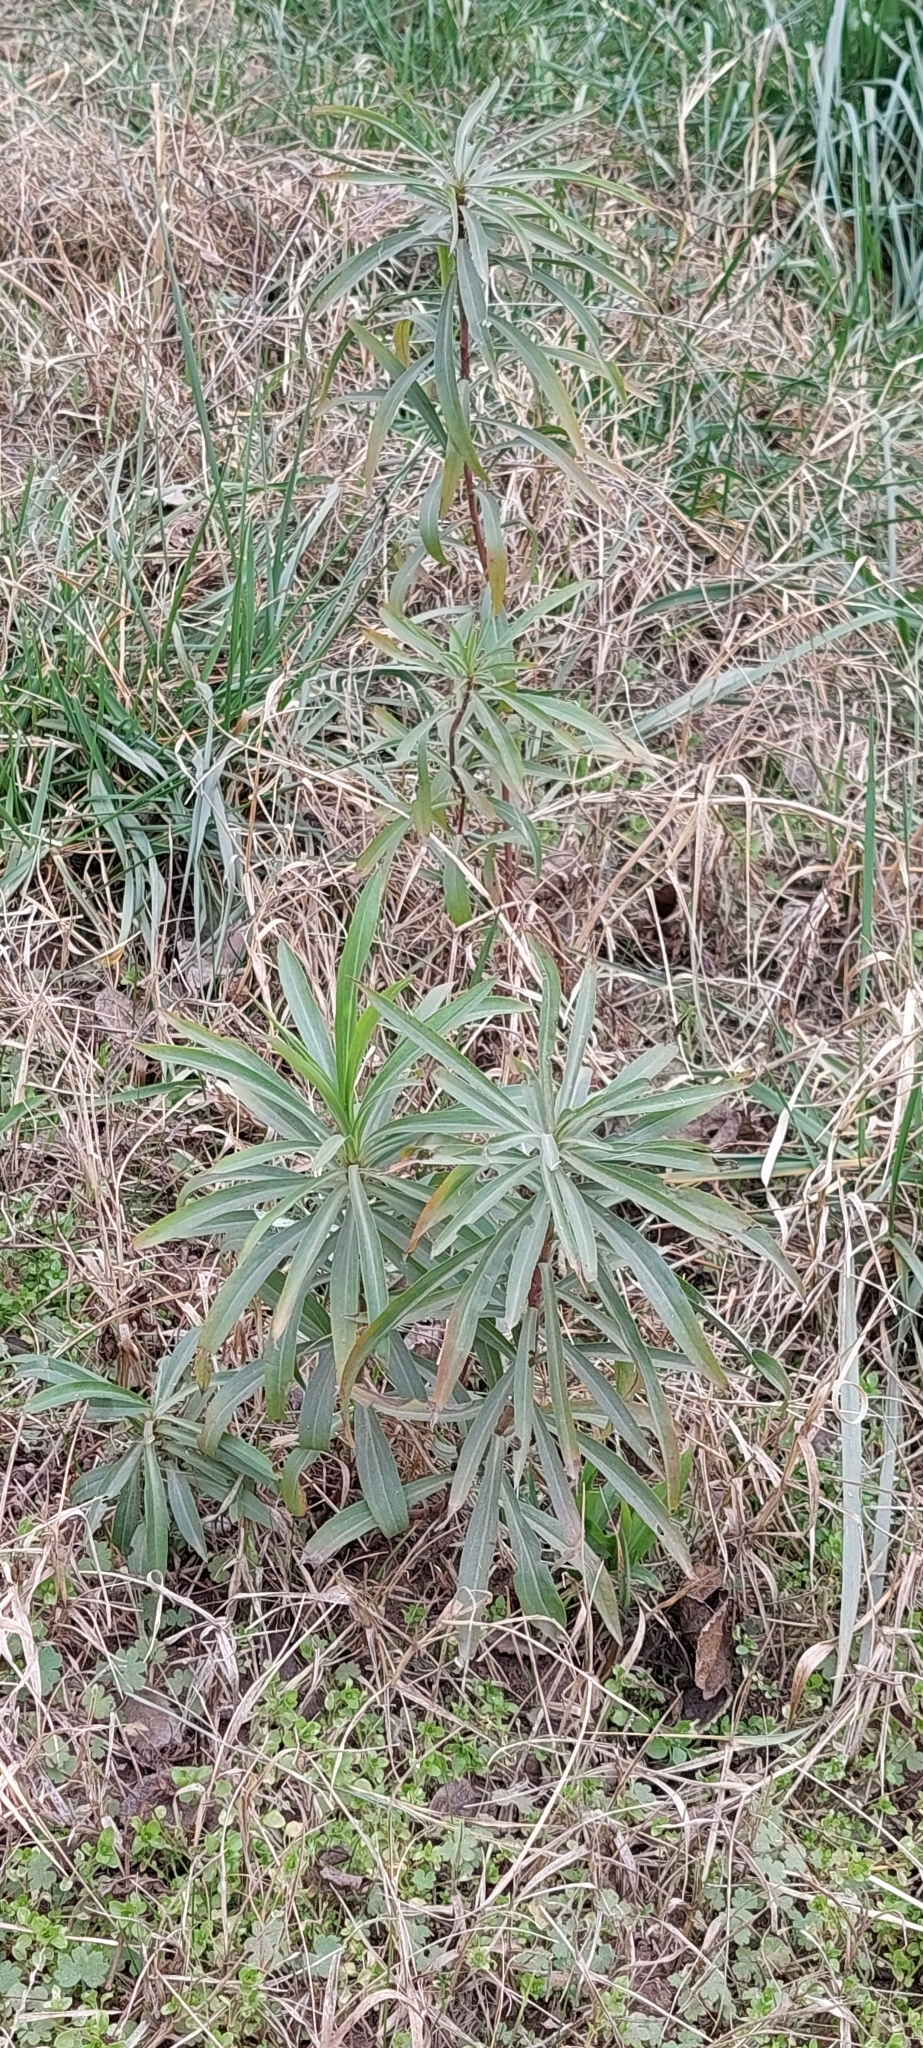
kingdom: Plantae
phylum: Tracheophyta
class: Magnoliopsida
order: Asterales
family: Asteraceae
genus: Solidago
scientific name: Solidago chilensis
